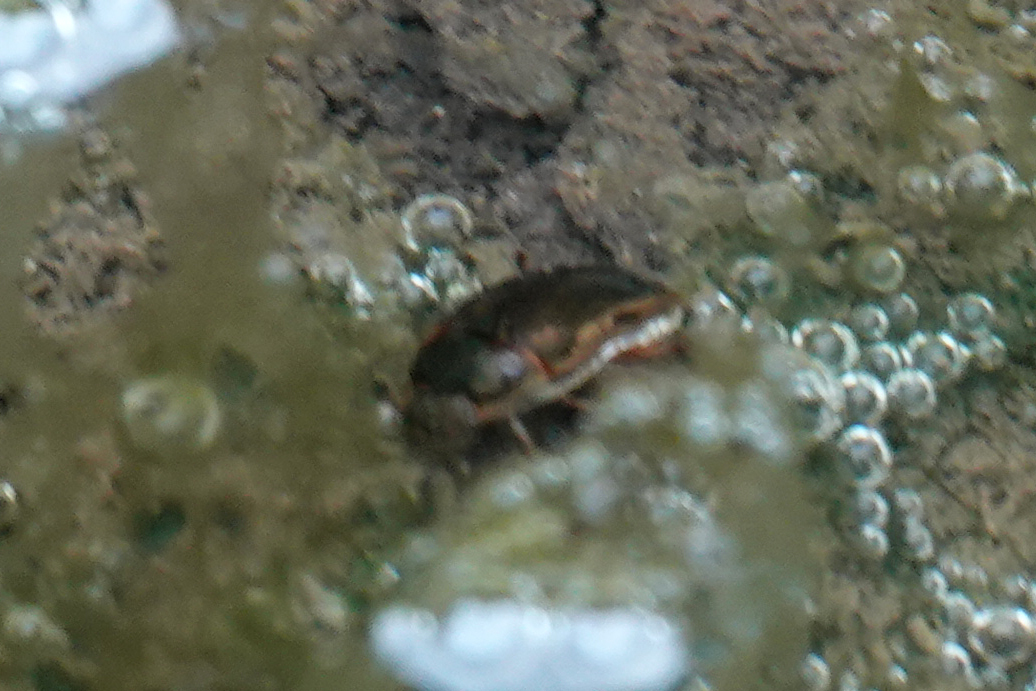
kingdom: Animalia
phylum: Arthropoda
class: Insecta
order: Coleoptera
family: Hydrophilidae
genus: Tropisternus
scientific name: Tropisternus collaris
